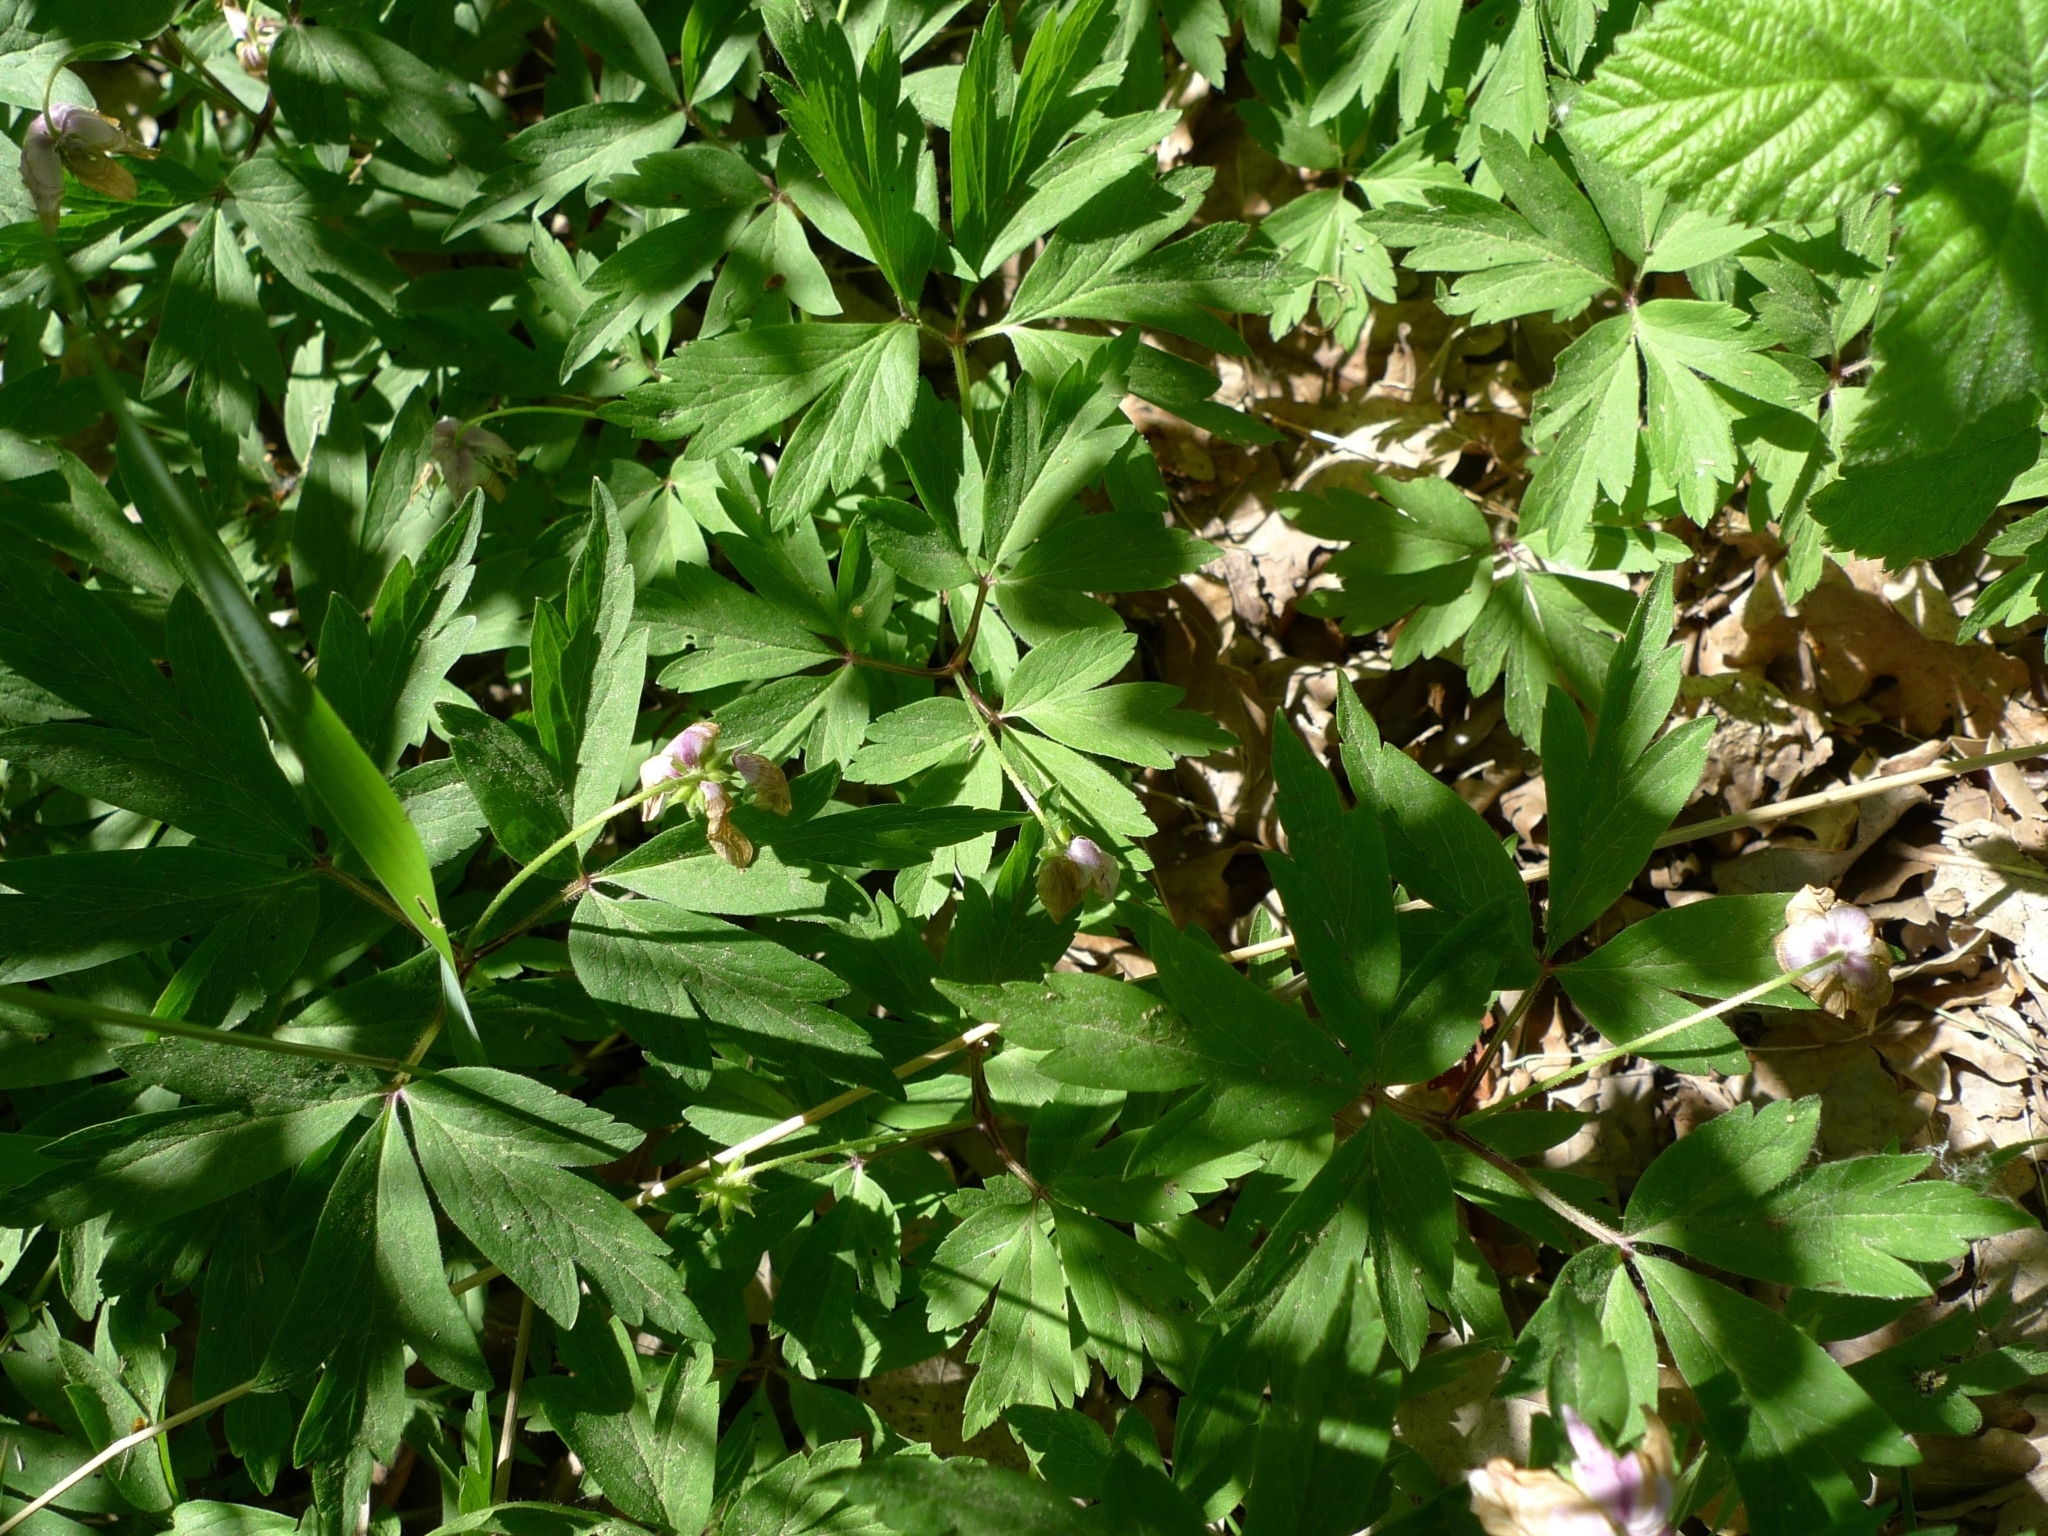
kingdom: Plantae
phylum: Tracheophyta
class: Magnoliopsida
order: Ranunculales
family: Ranunculaceae
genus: Anemone
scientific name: Anemone nemorosa
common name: Wood anemone
